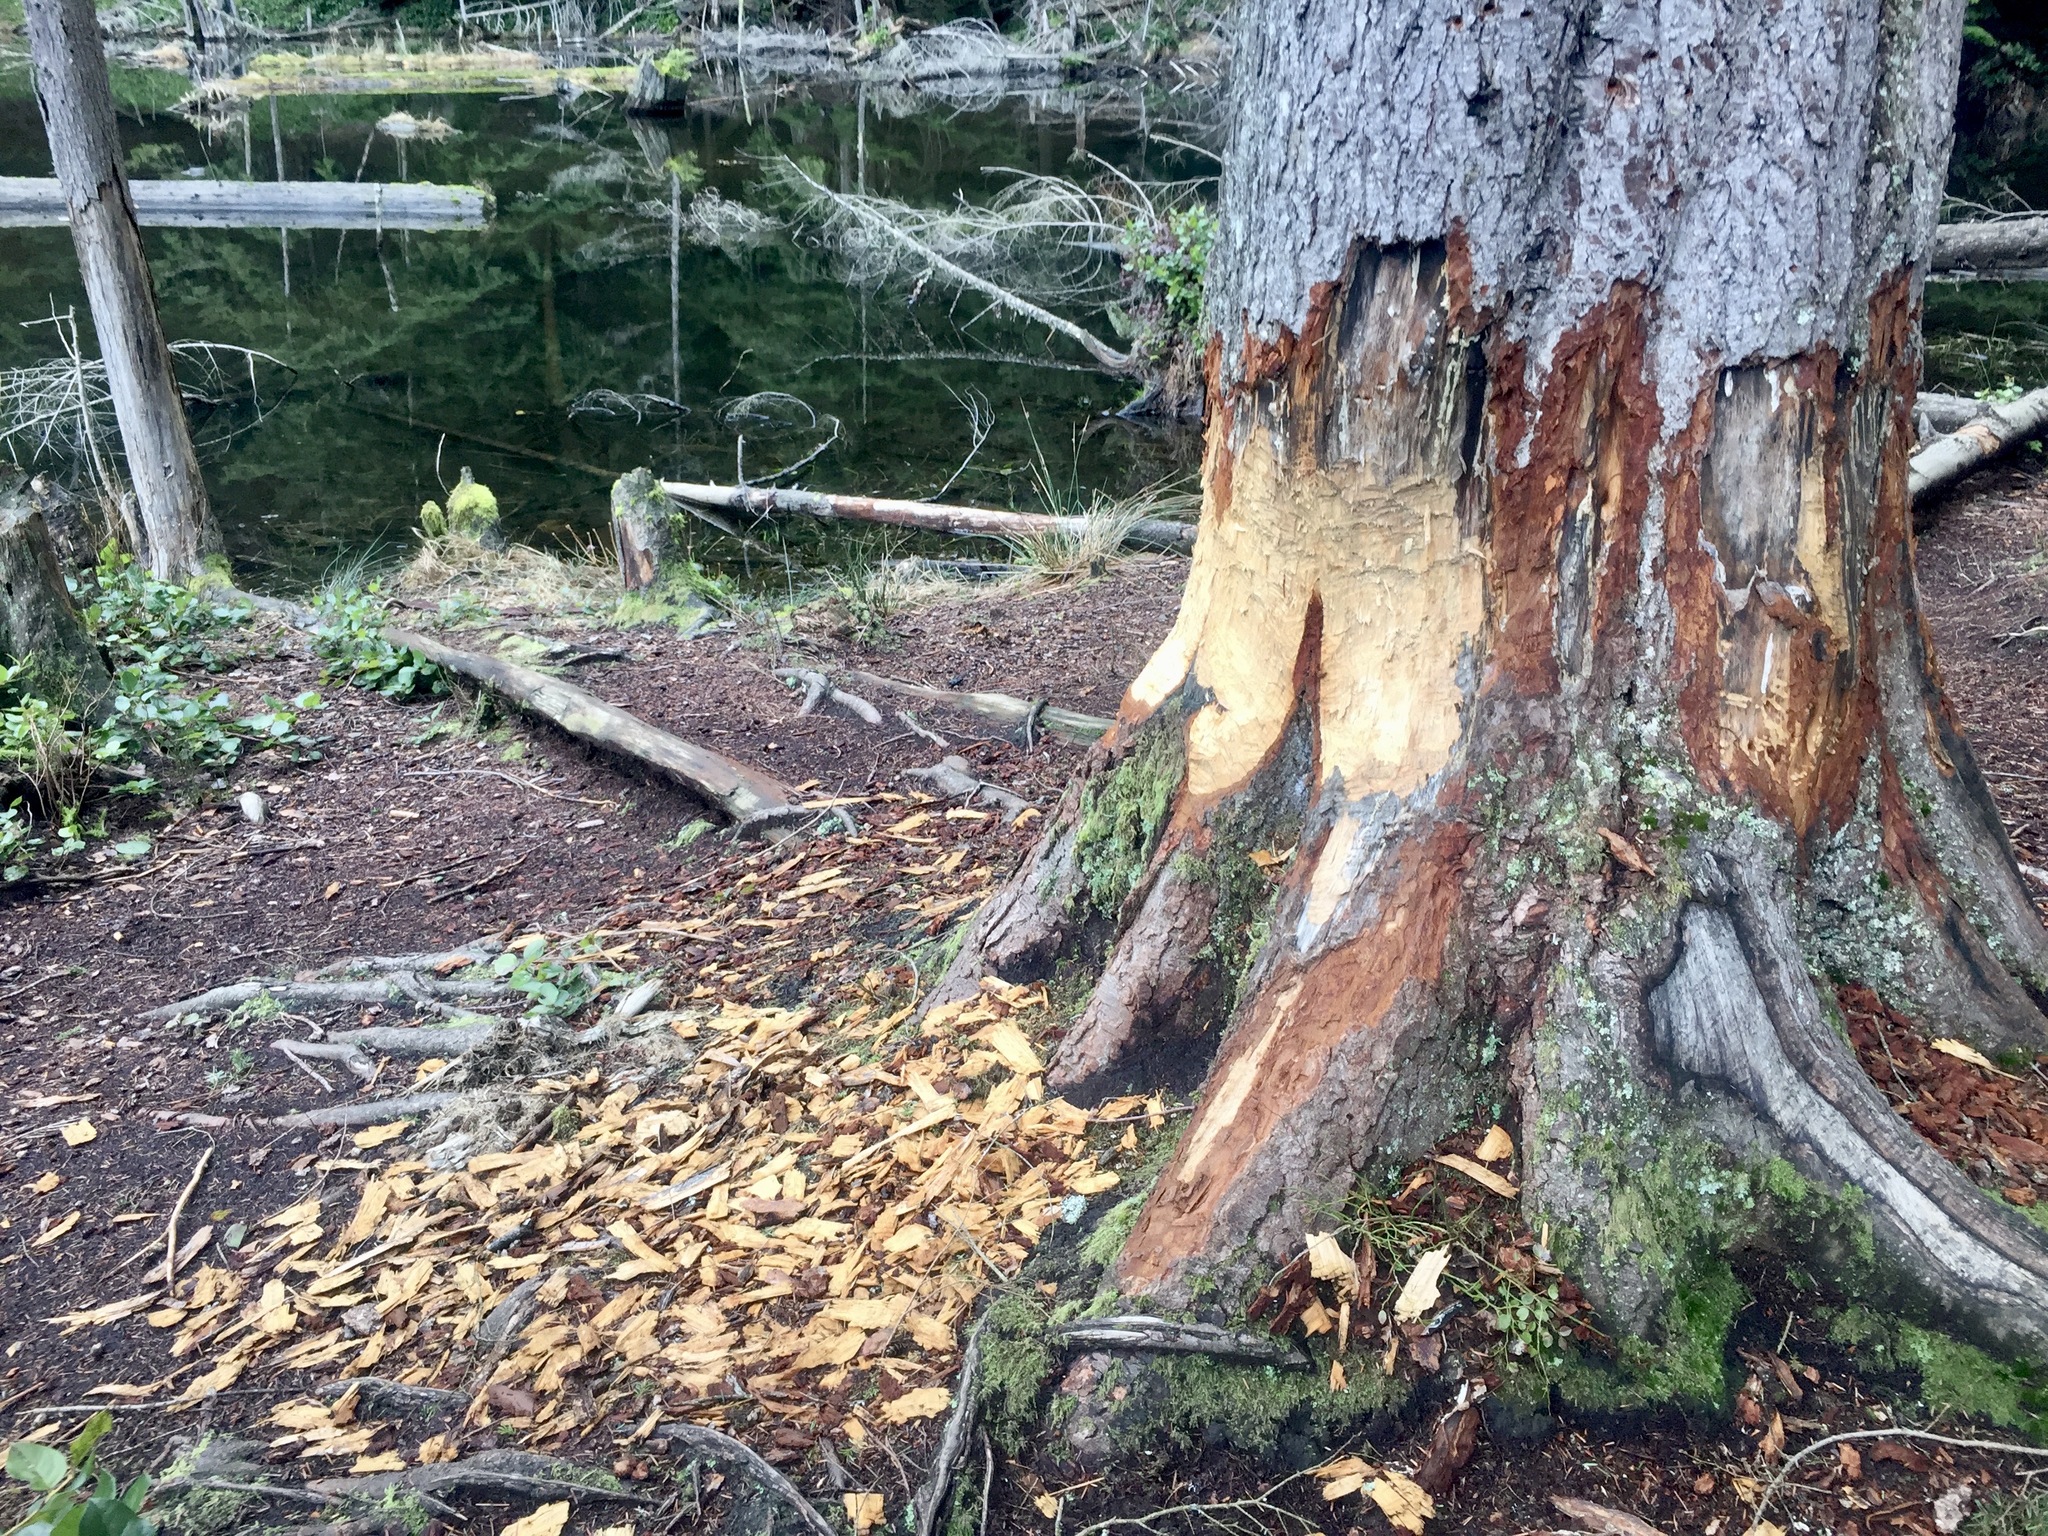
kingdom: Animalia
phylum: Chordata
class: Mammalia
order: Rodentia
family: Castoridae
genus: Castor
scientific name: Castor canadensis
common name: American beaver
